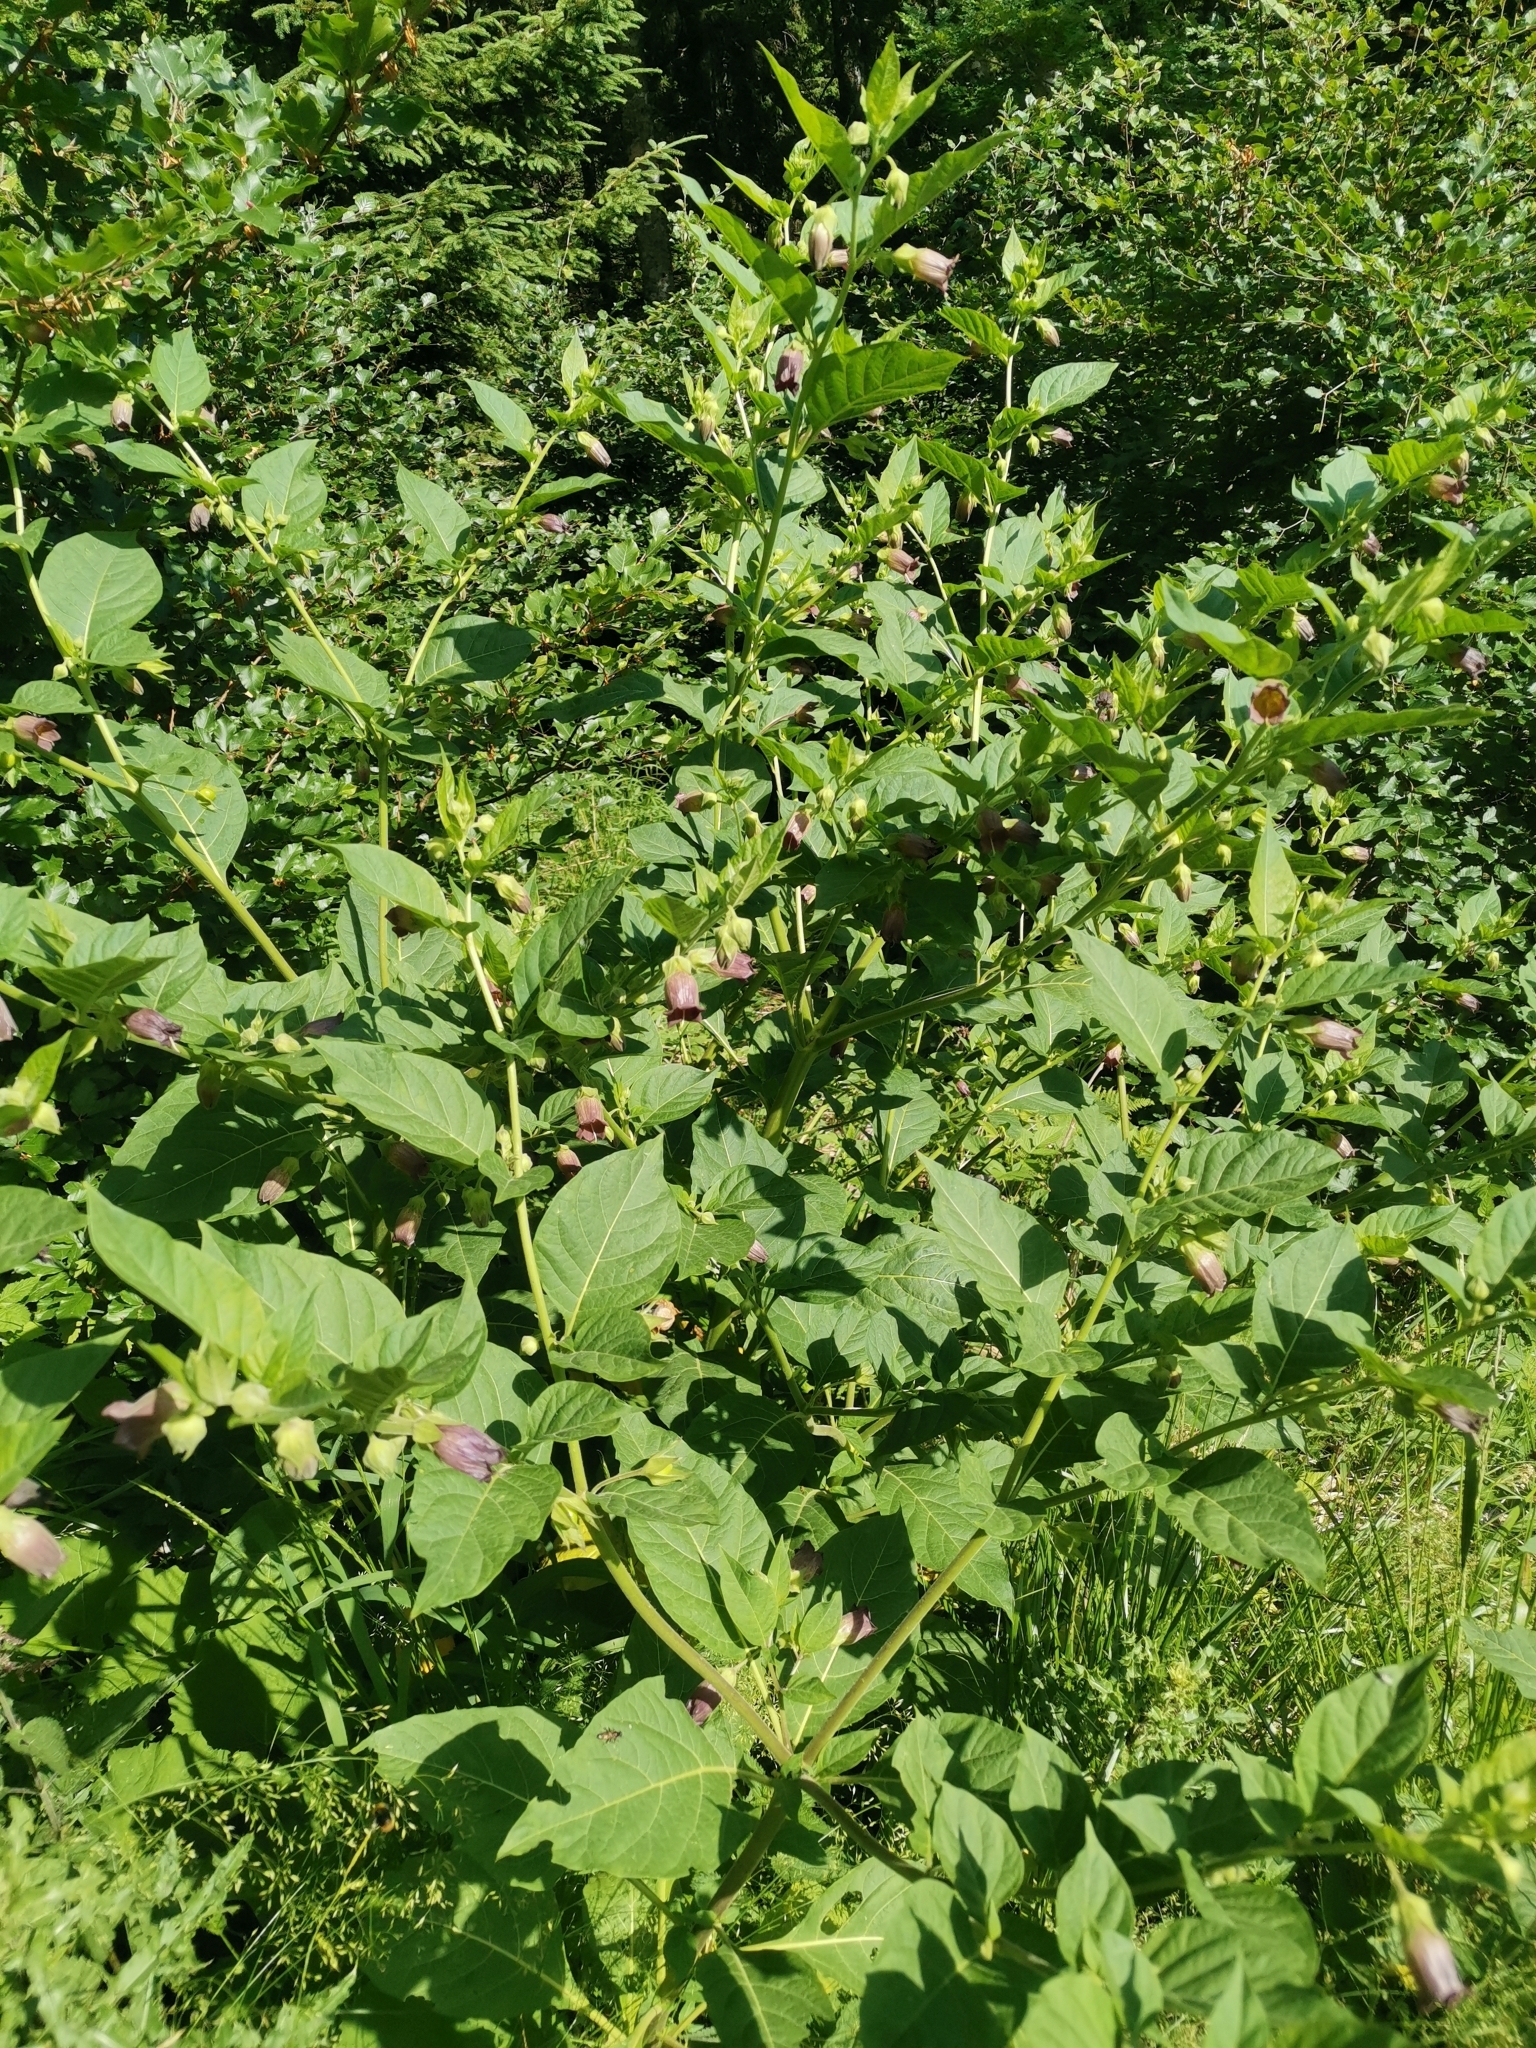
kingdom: Plantae
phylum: Tracheophyta
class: Magnoliopsida
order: Solanales
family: Solanaceae
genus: Atropa
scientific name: Atropa belladonna
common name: Deadly nightshade
